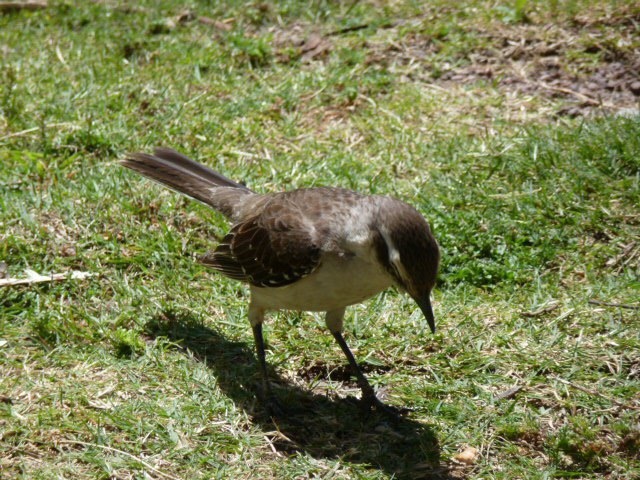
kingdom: Animalia
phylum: Chordata
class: Aves
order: Passeriformes
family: Mimidae
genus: Mimus
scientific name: Mimus saturninus
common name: Chalk-browed mockingbird
